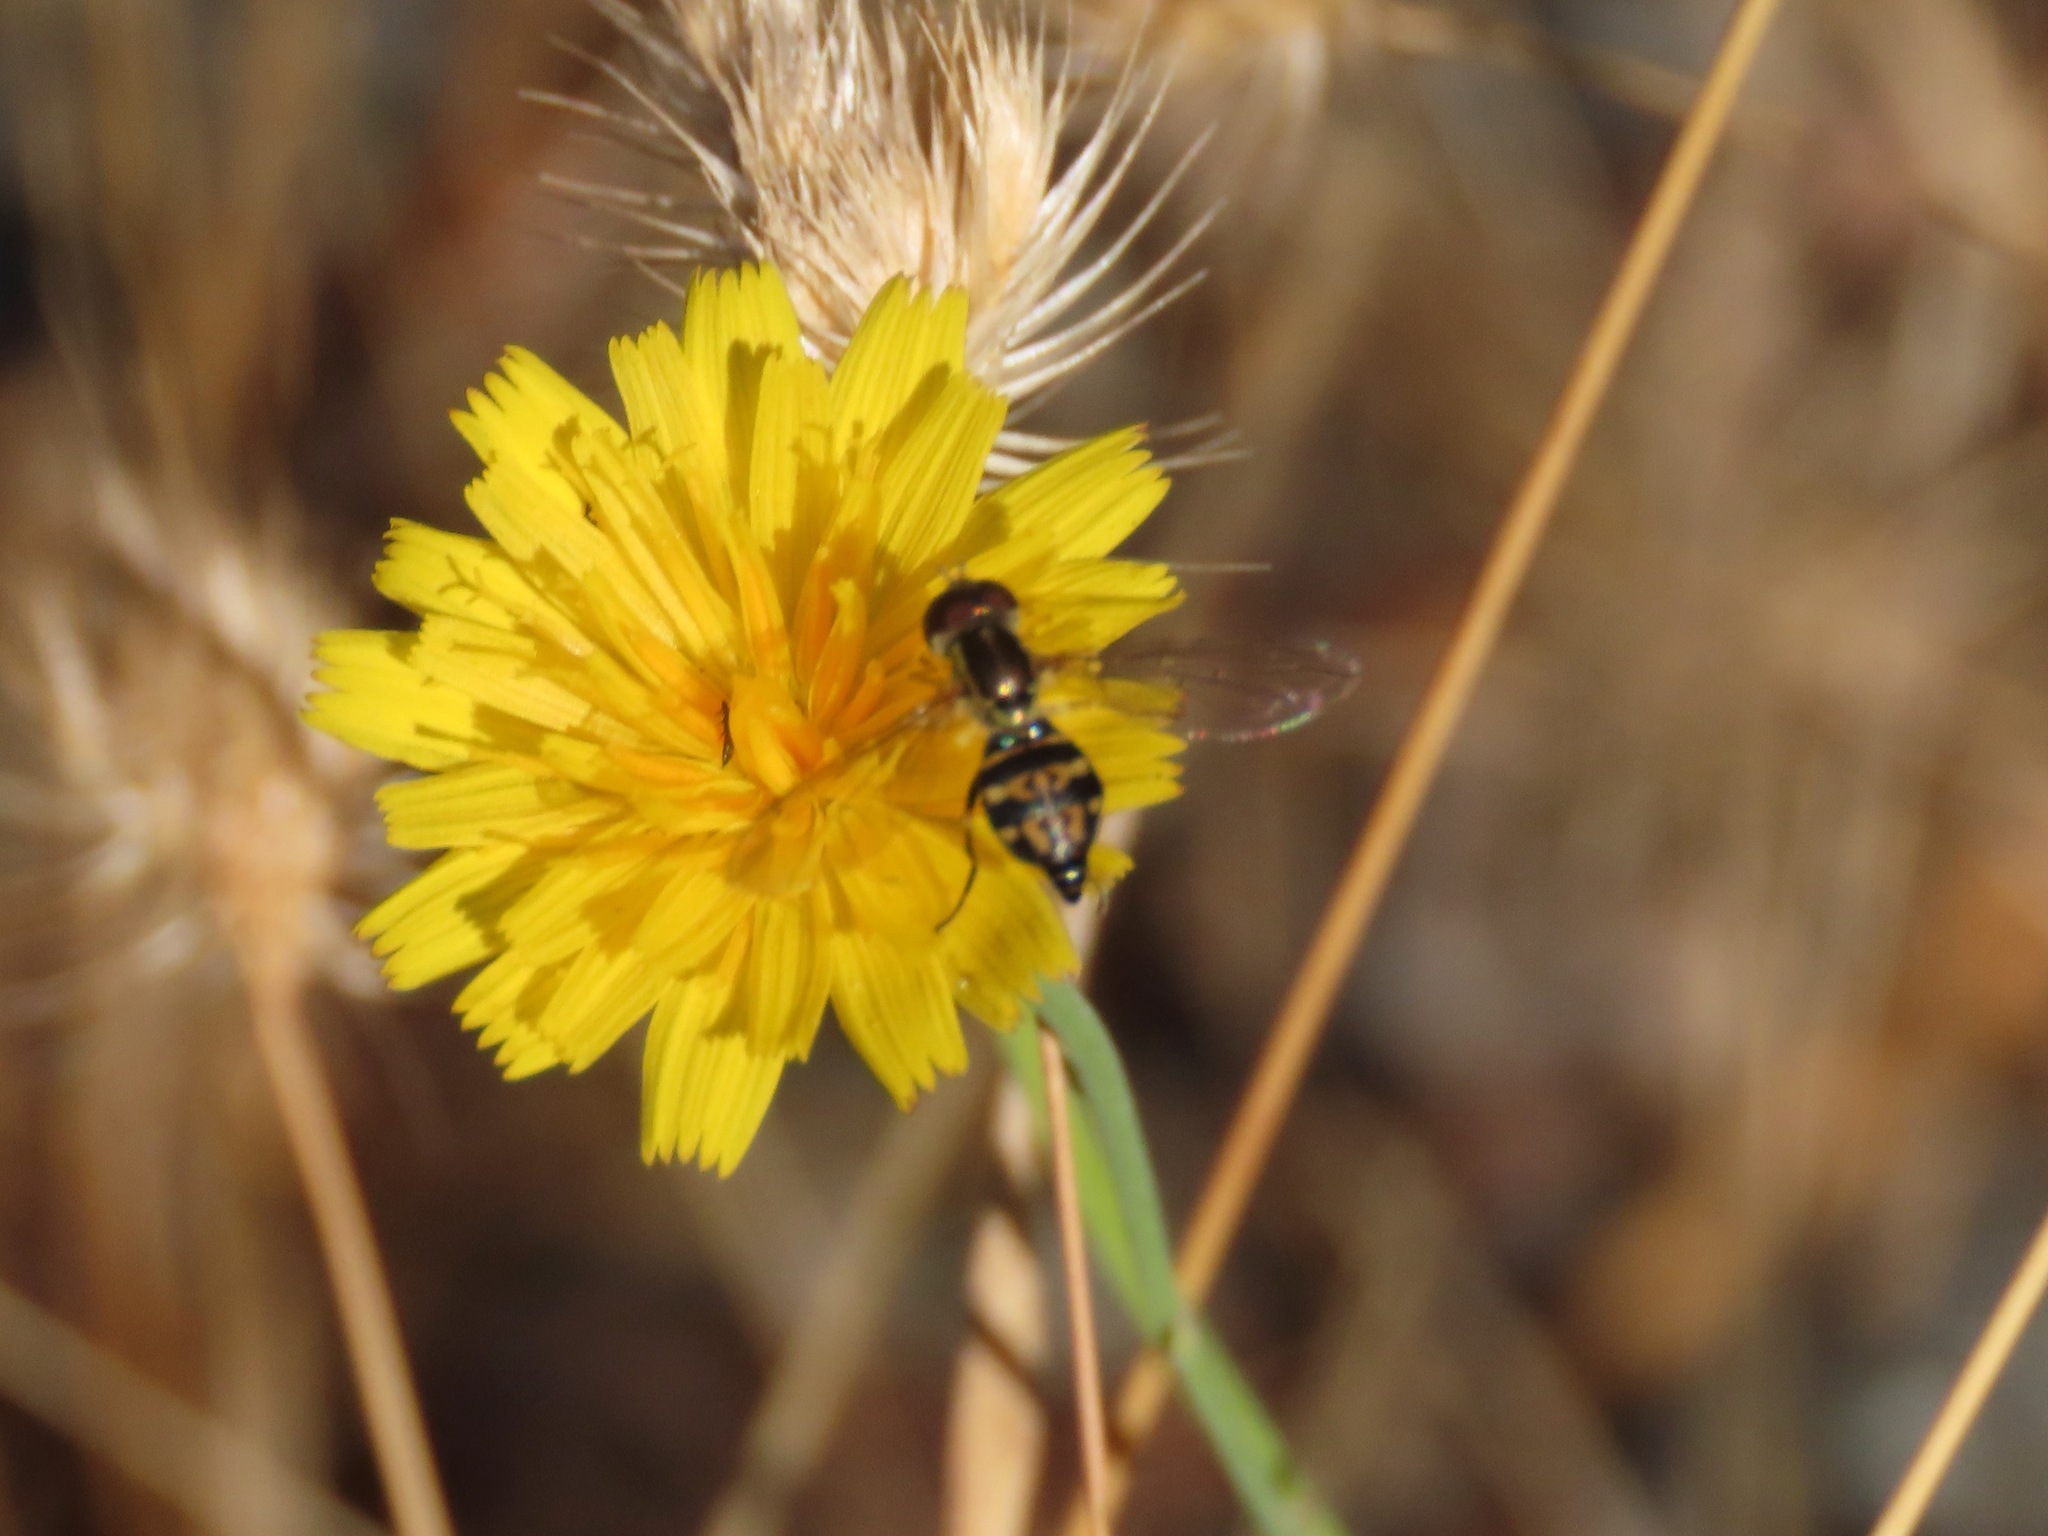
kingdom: Animalia
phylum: Arthropoda
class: Insecta
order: Diptera
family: Syrphidae
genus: Toxomerus
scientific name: Toxomerus occidentalis
